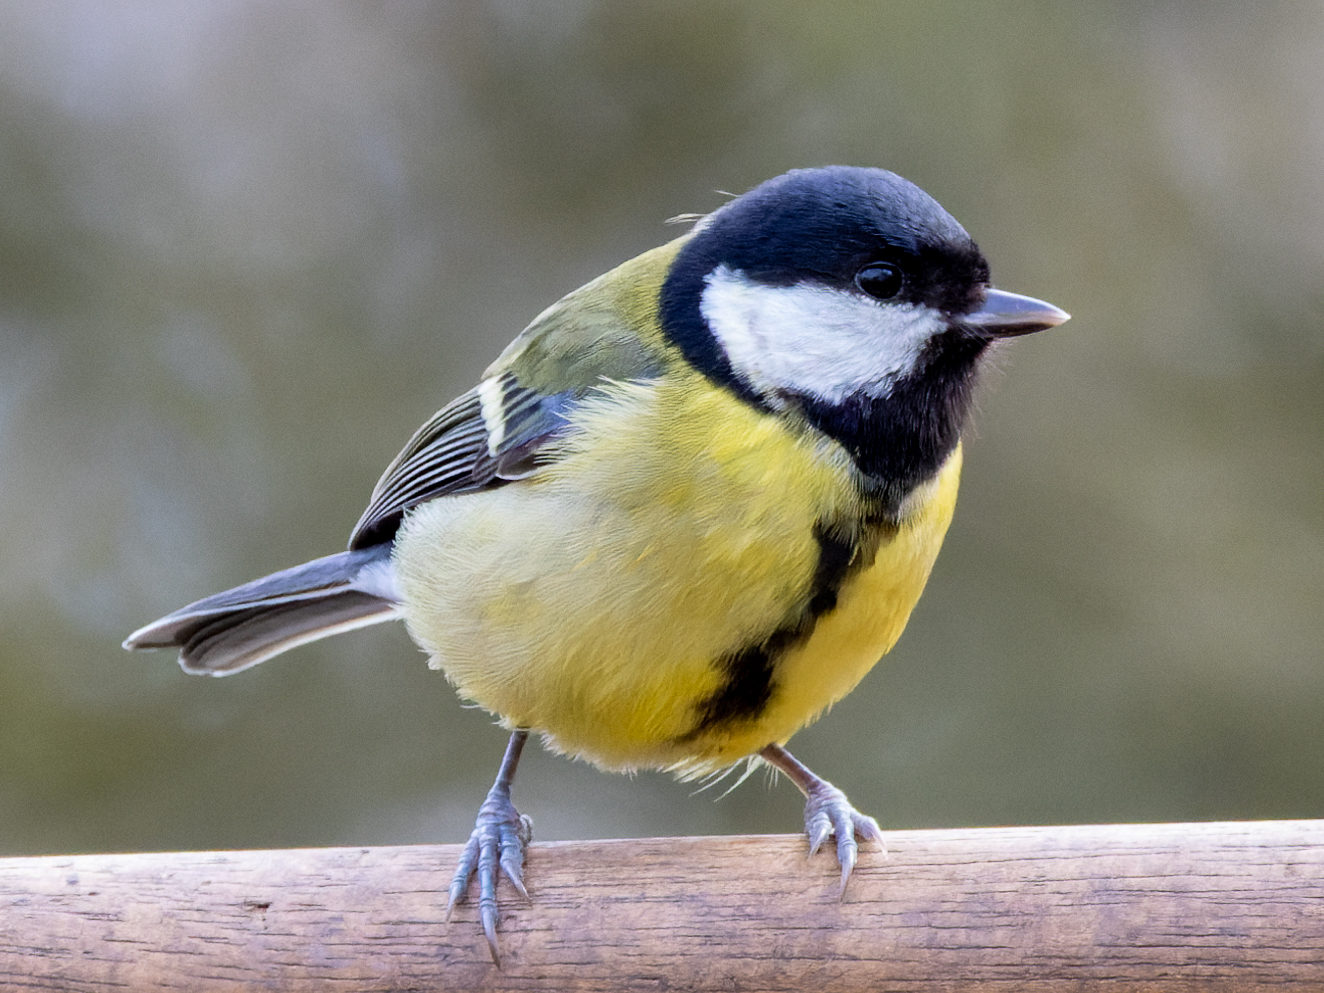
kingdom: Animalia
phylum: Chordata
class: Aves
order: Passeriformes
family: Paridae
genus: Parus
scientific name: Parus major
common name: Great tit
